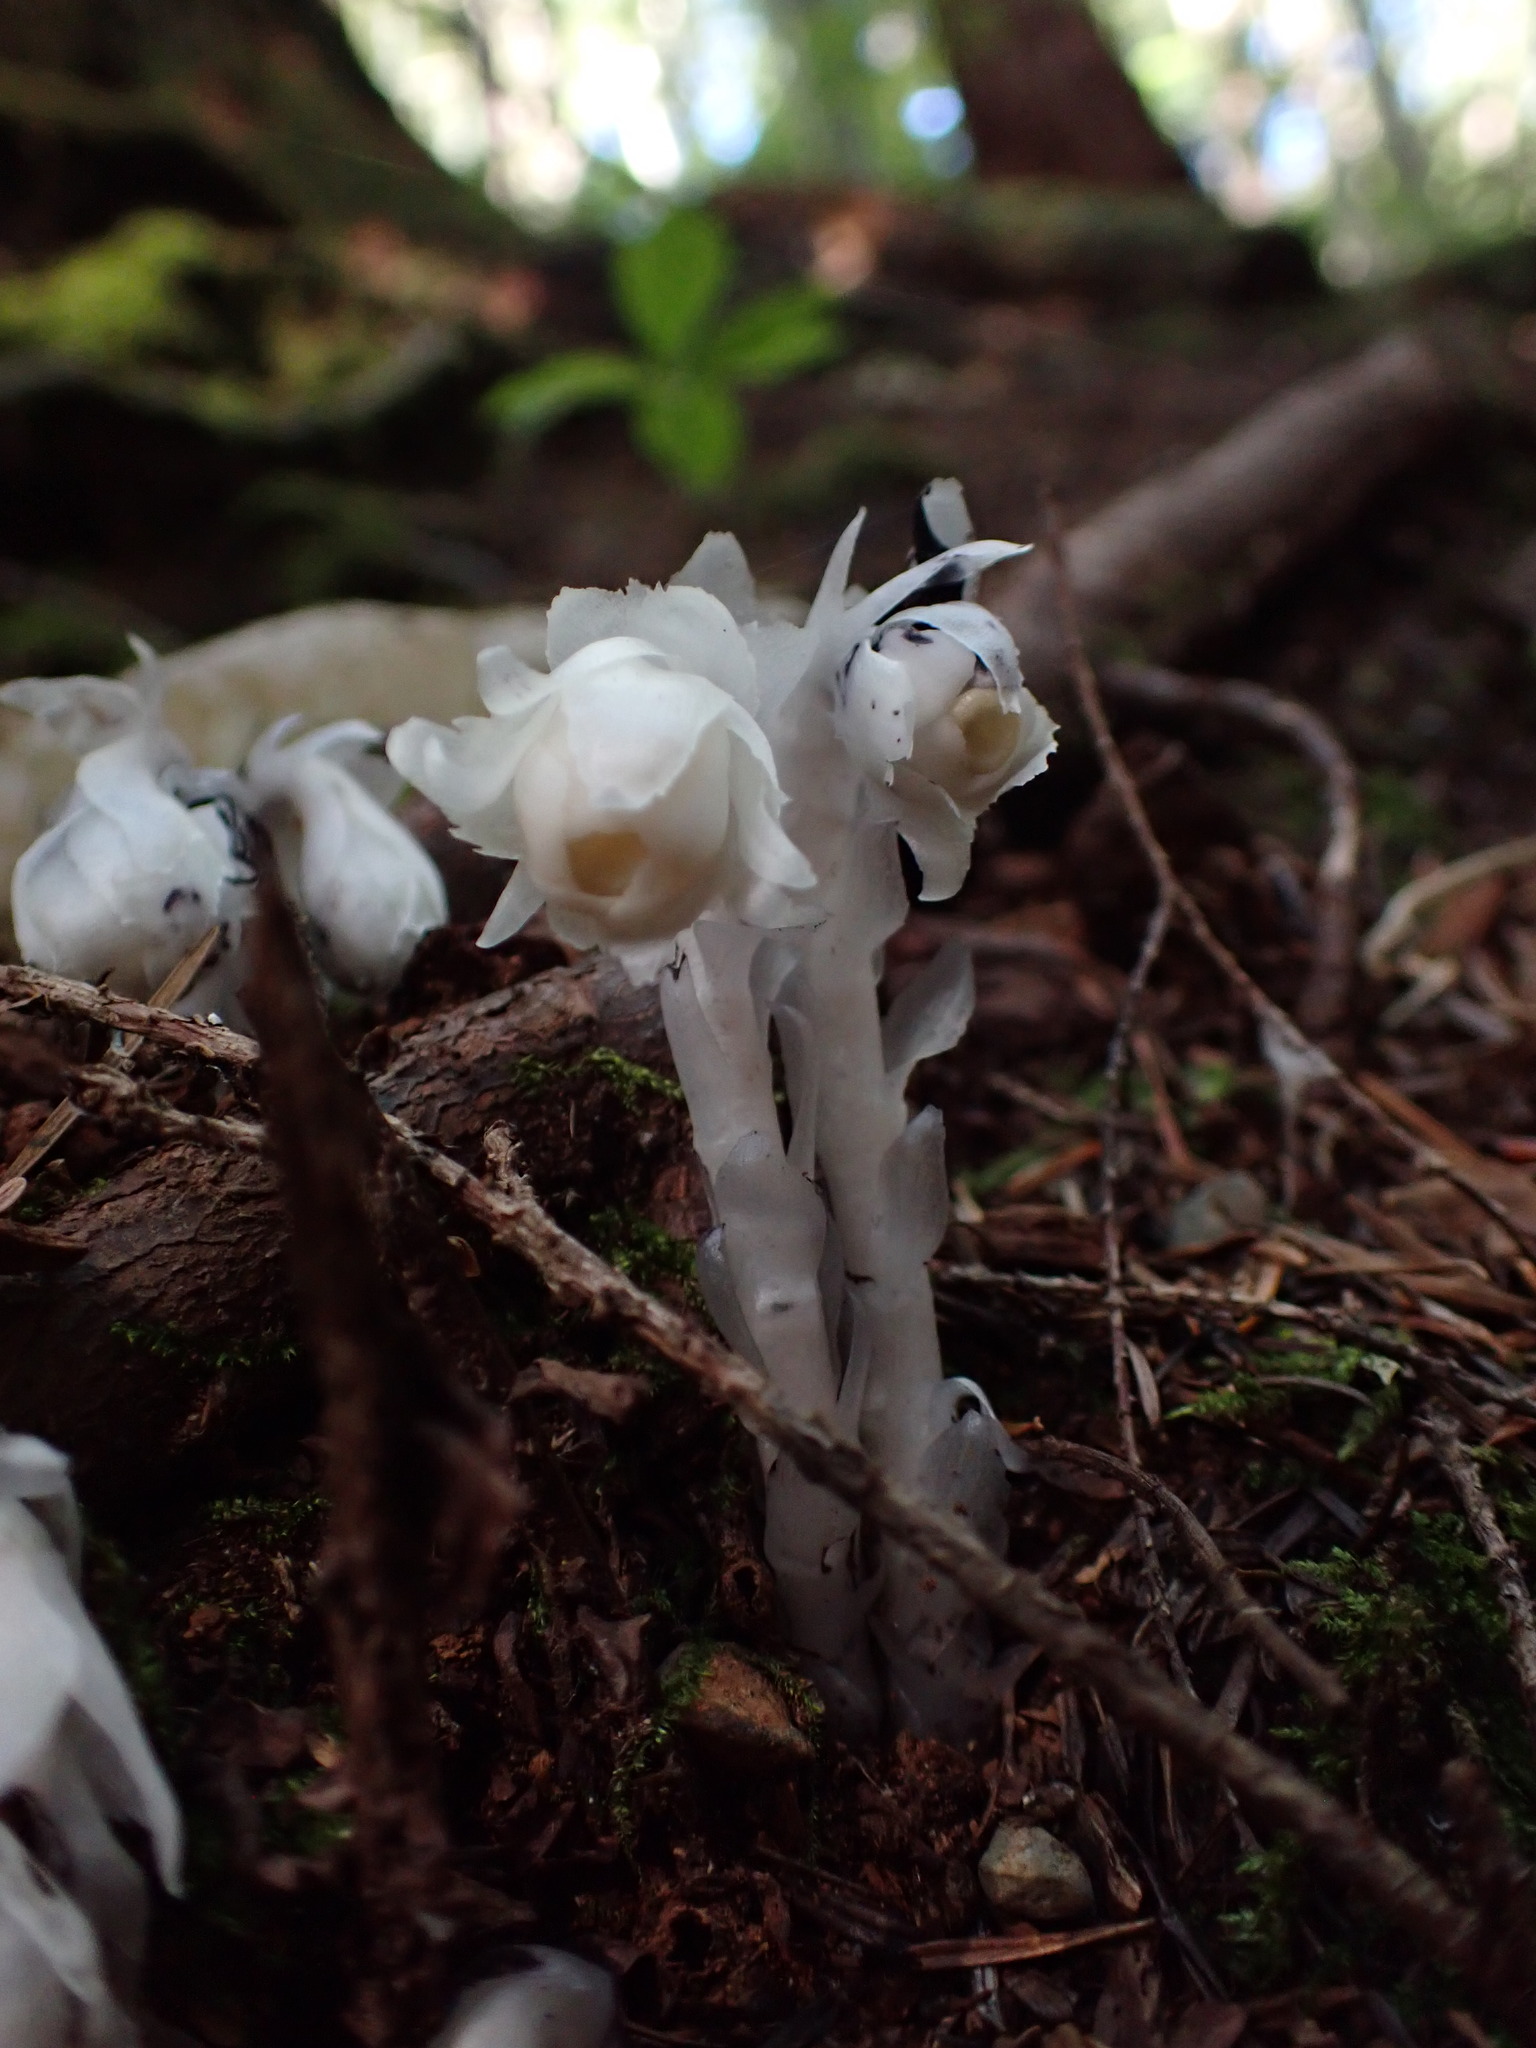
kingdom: Plantae
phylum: Tracheophyta
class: Magnoliopsida
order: Ericales
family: Ericaceae
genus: Monotropa
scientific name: Monotropa uniflora
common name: Convulsion root
